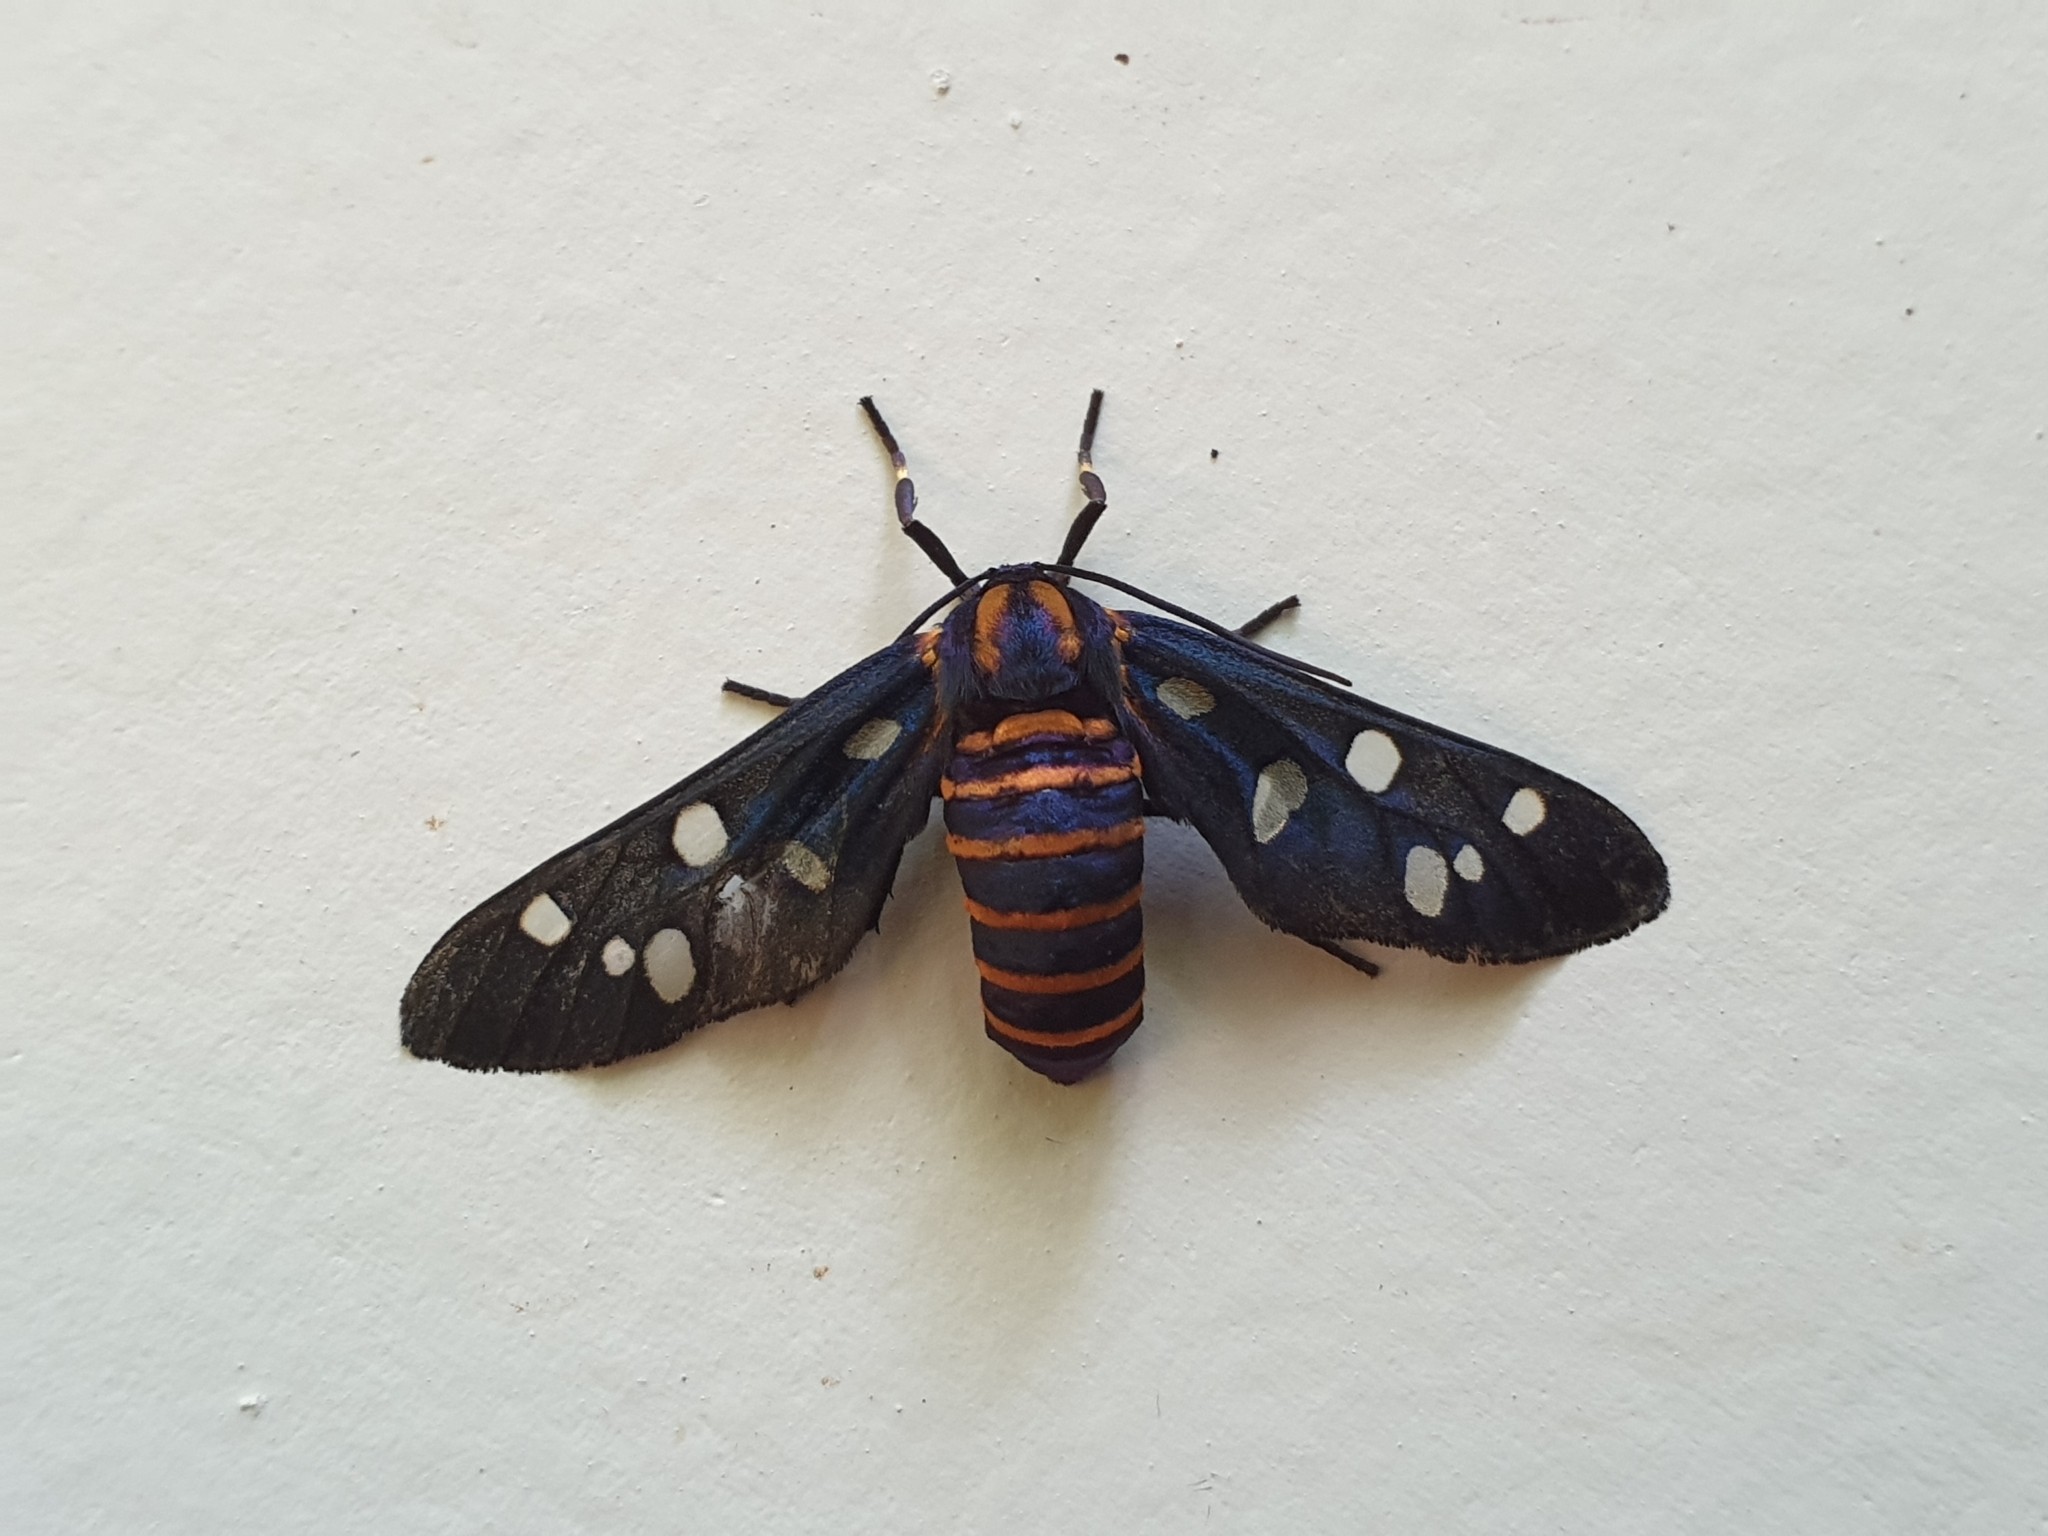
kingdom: Animalia
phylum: Arthropoda
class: Insecta
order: Lepidoptera
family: Erebidae
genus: Amata
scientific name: Amata passalis
